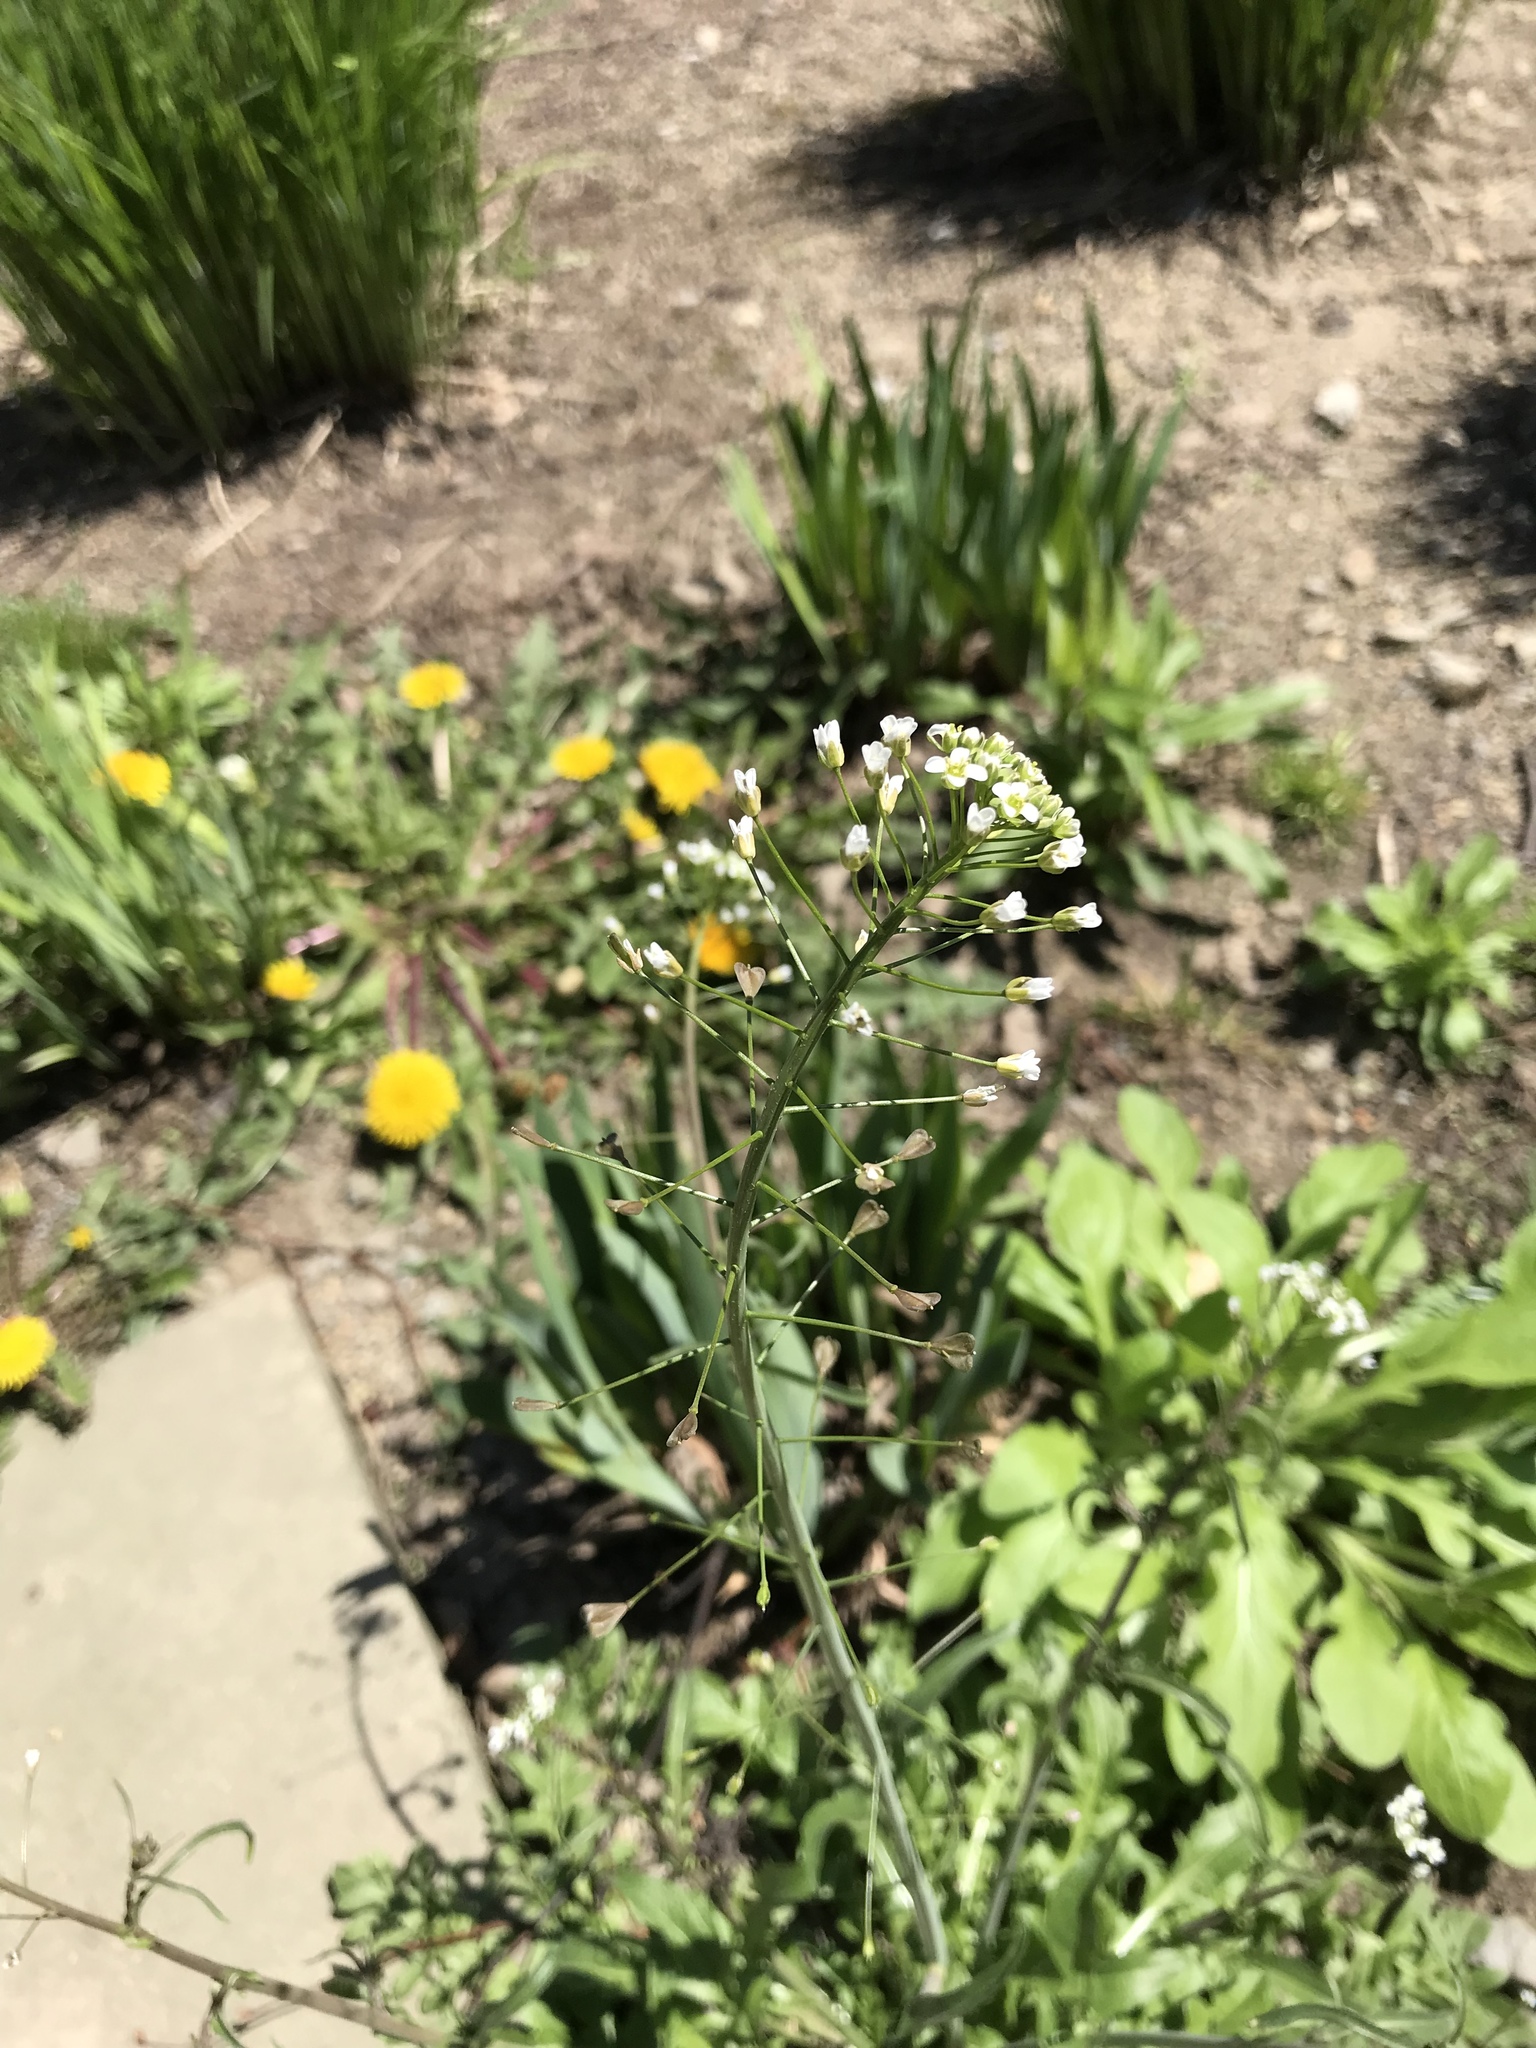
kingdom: Plantae
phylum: Tracheophyta
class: Magnoliopsida
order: Brassicales
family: Brassicaceae
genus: Capsella
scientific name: Capsella bursa-pastoris
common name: Shepherd's purse
